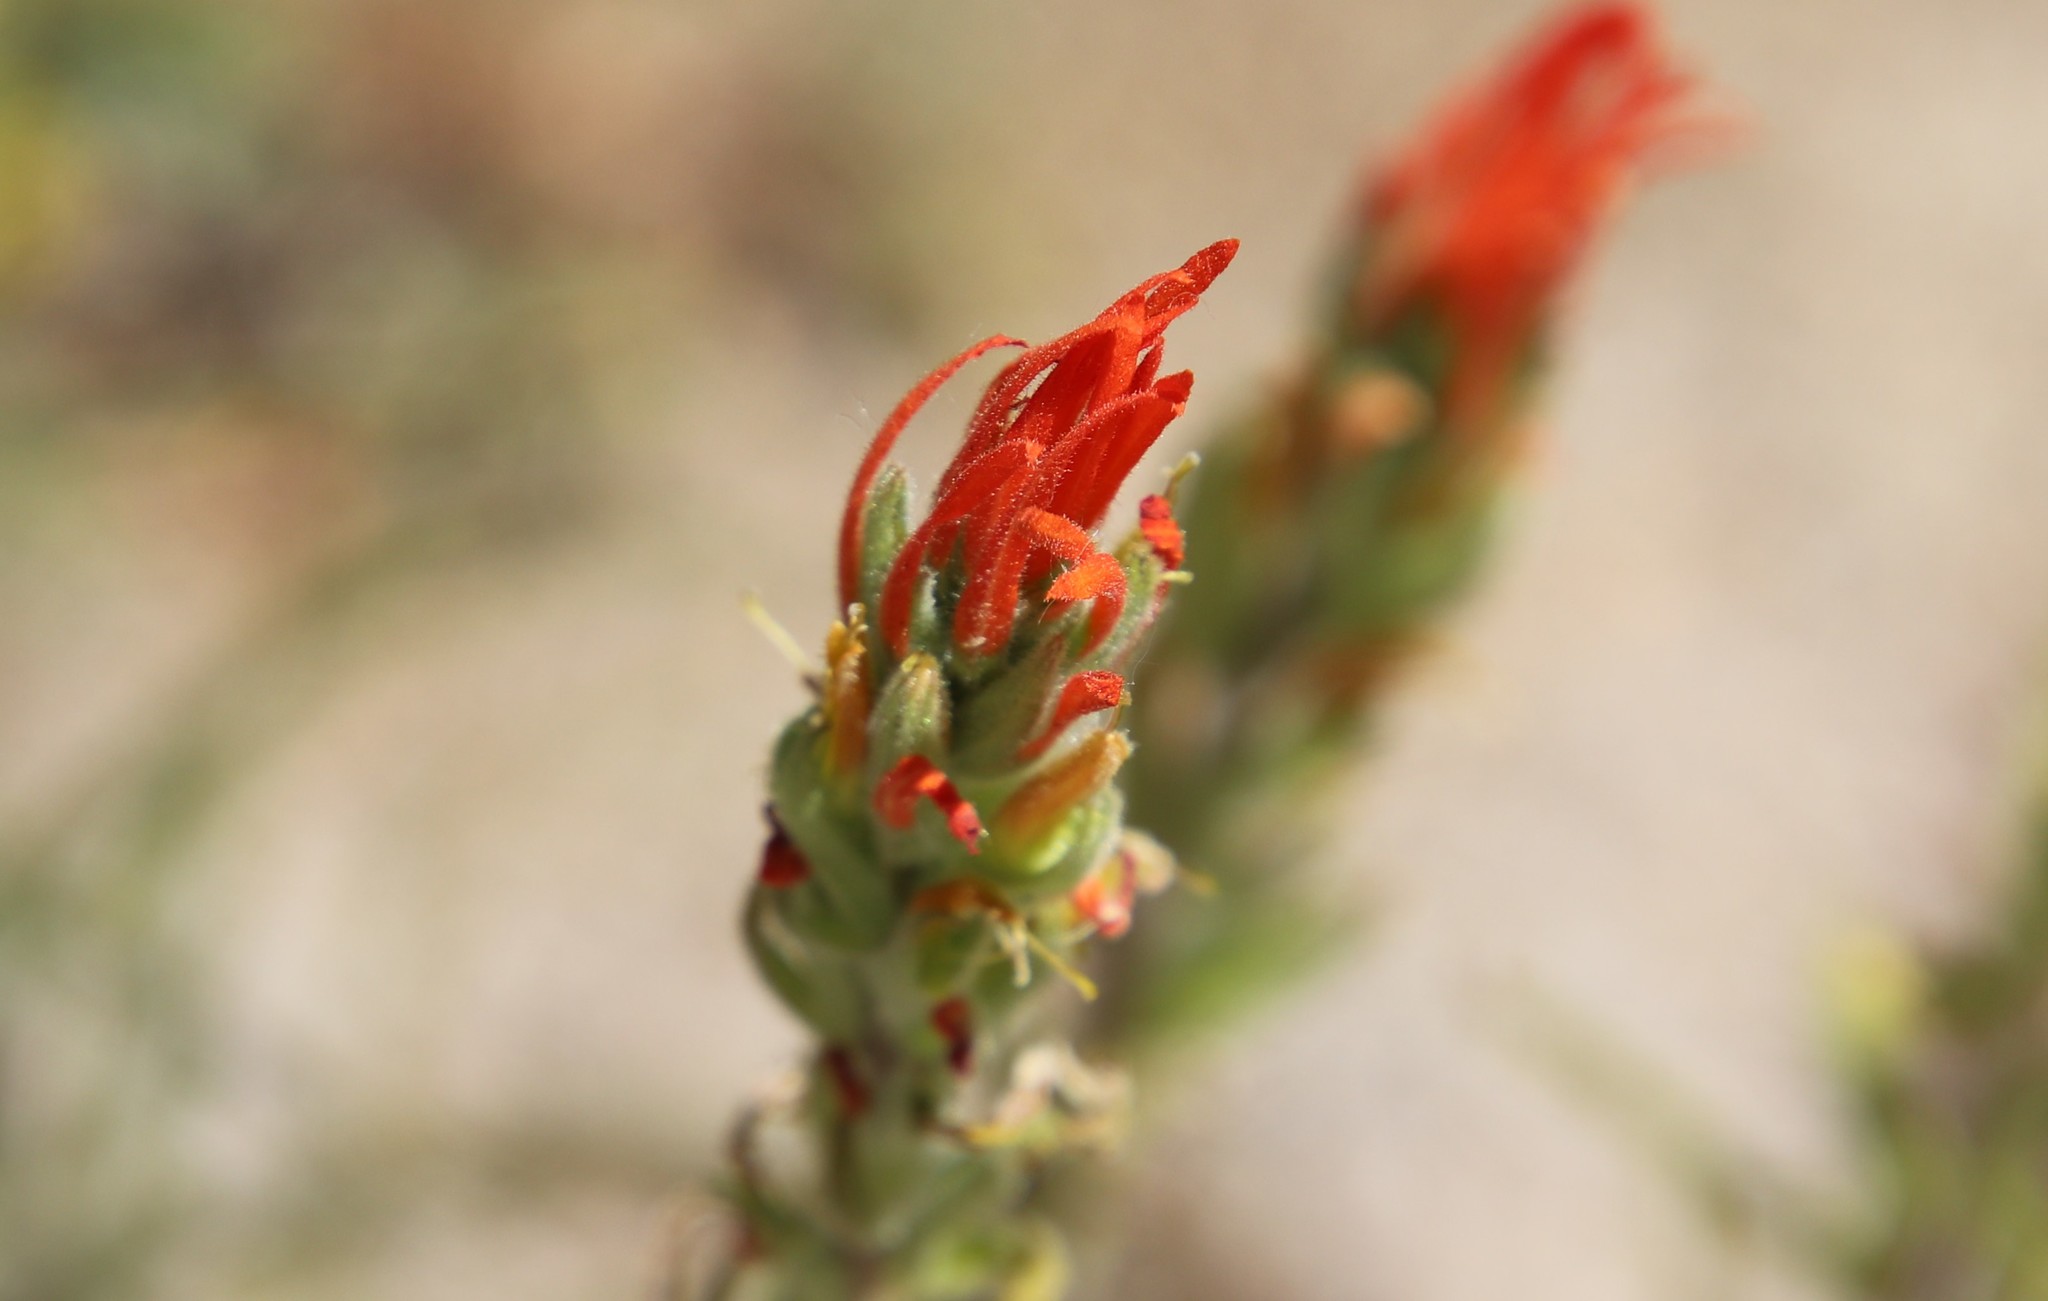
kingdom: Plantae
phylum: Tracheophyta
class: Magnoliopsida
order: Lamiales
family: Orobanchaceae
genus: Castilleja
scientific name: Castilleja minor
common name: Seep paintbrush
